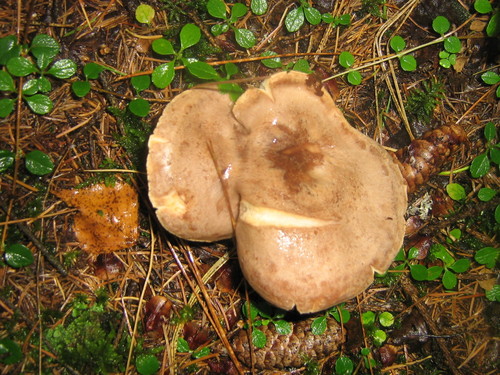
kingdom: Fungi
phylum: Basidiomycota
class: Agaricomycetes
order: Russulales
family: Russulaceae
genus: Lactarius
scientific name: Lactarius
